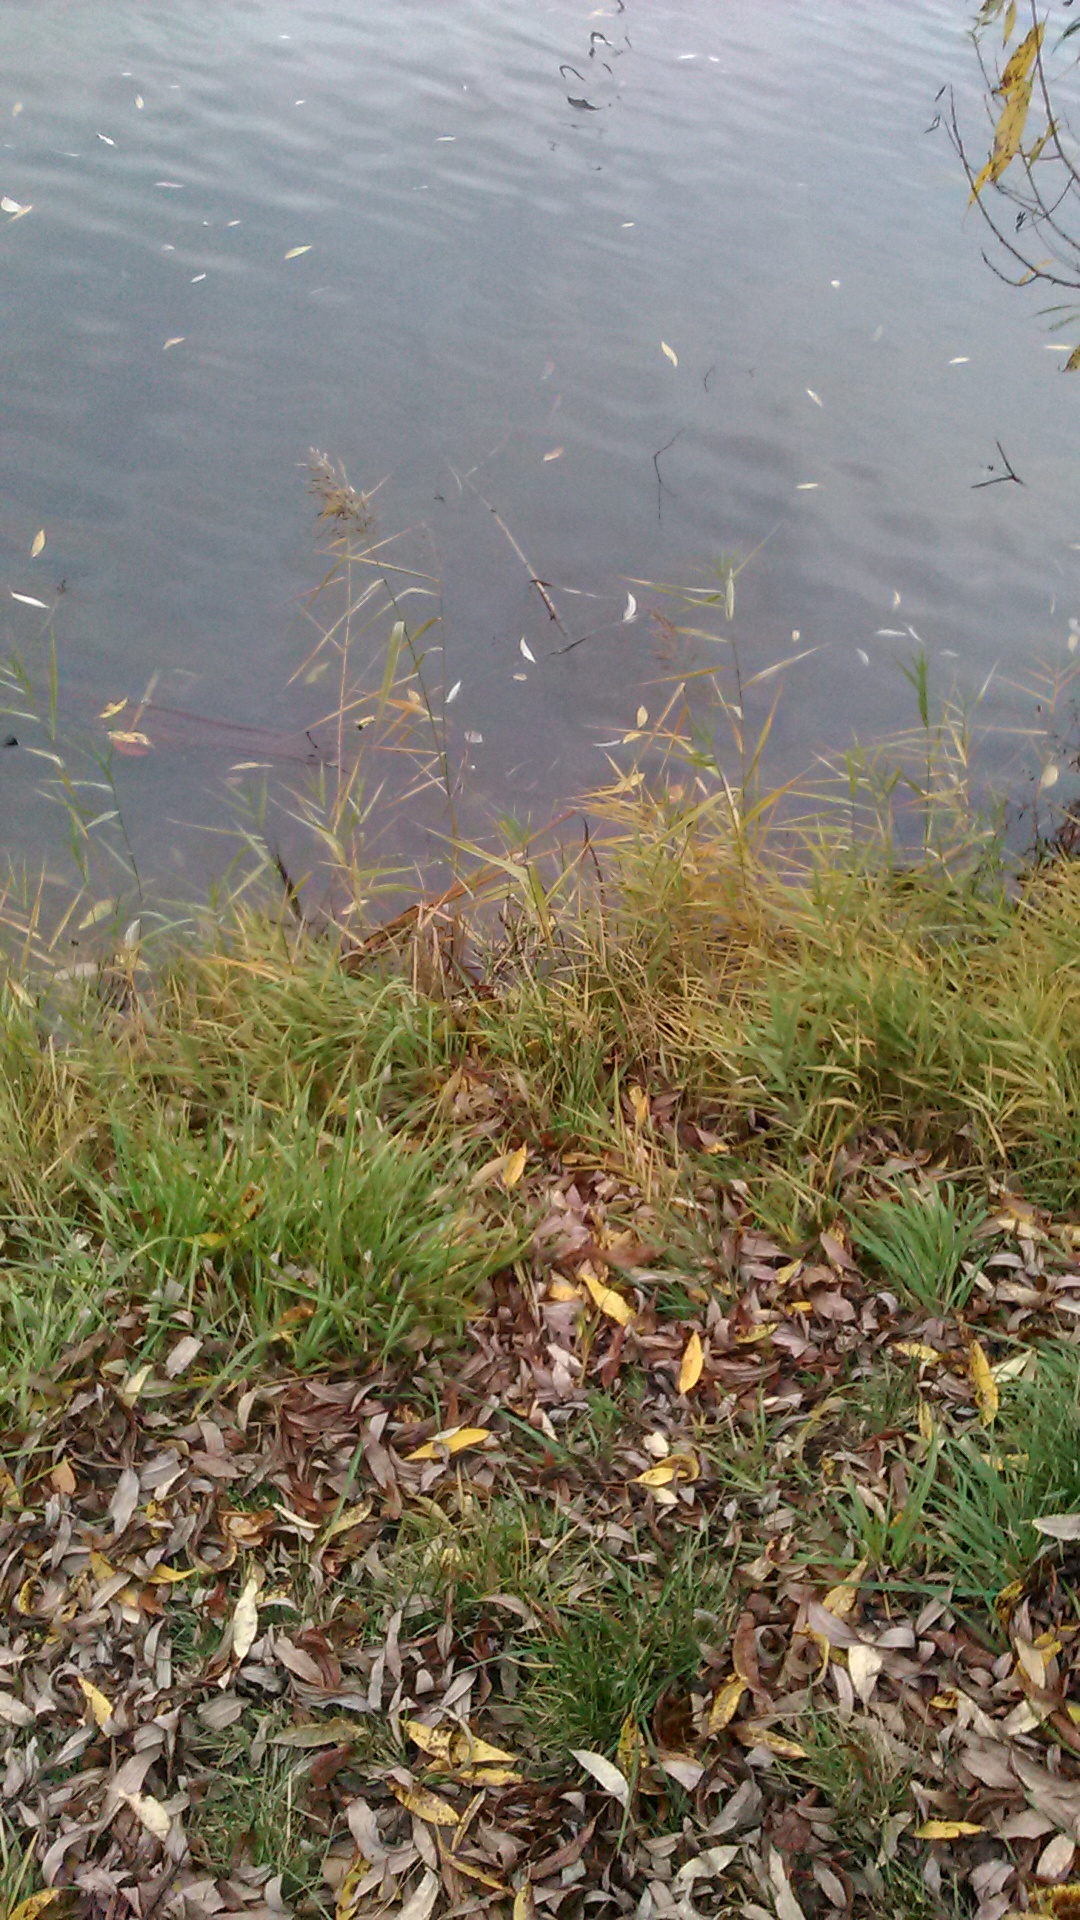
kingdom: Plantae
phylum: Tracheophyta
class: Liliopsida
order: Poales
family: Poaceae
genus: Phragmites
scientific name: Phragmites australis
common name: Common reed
